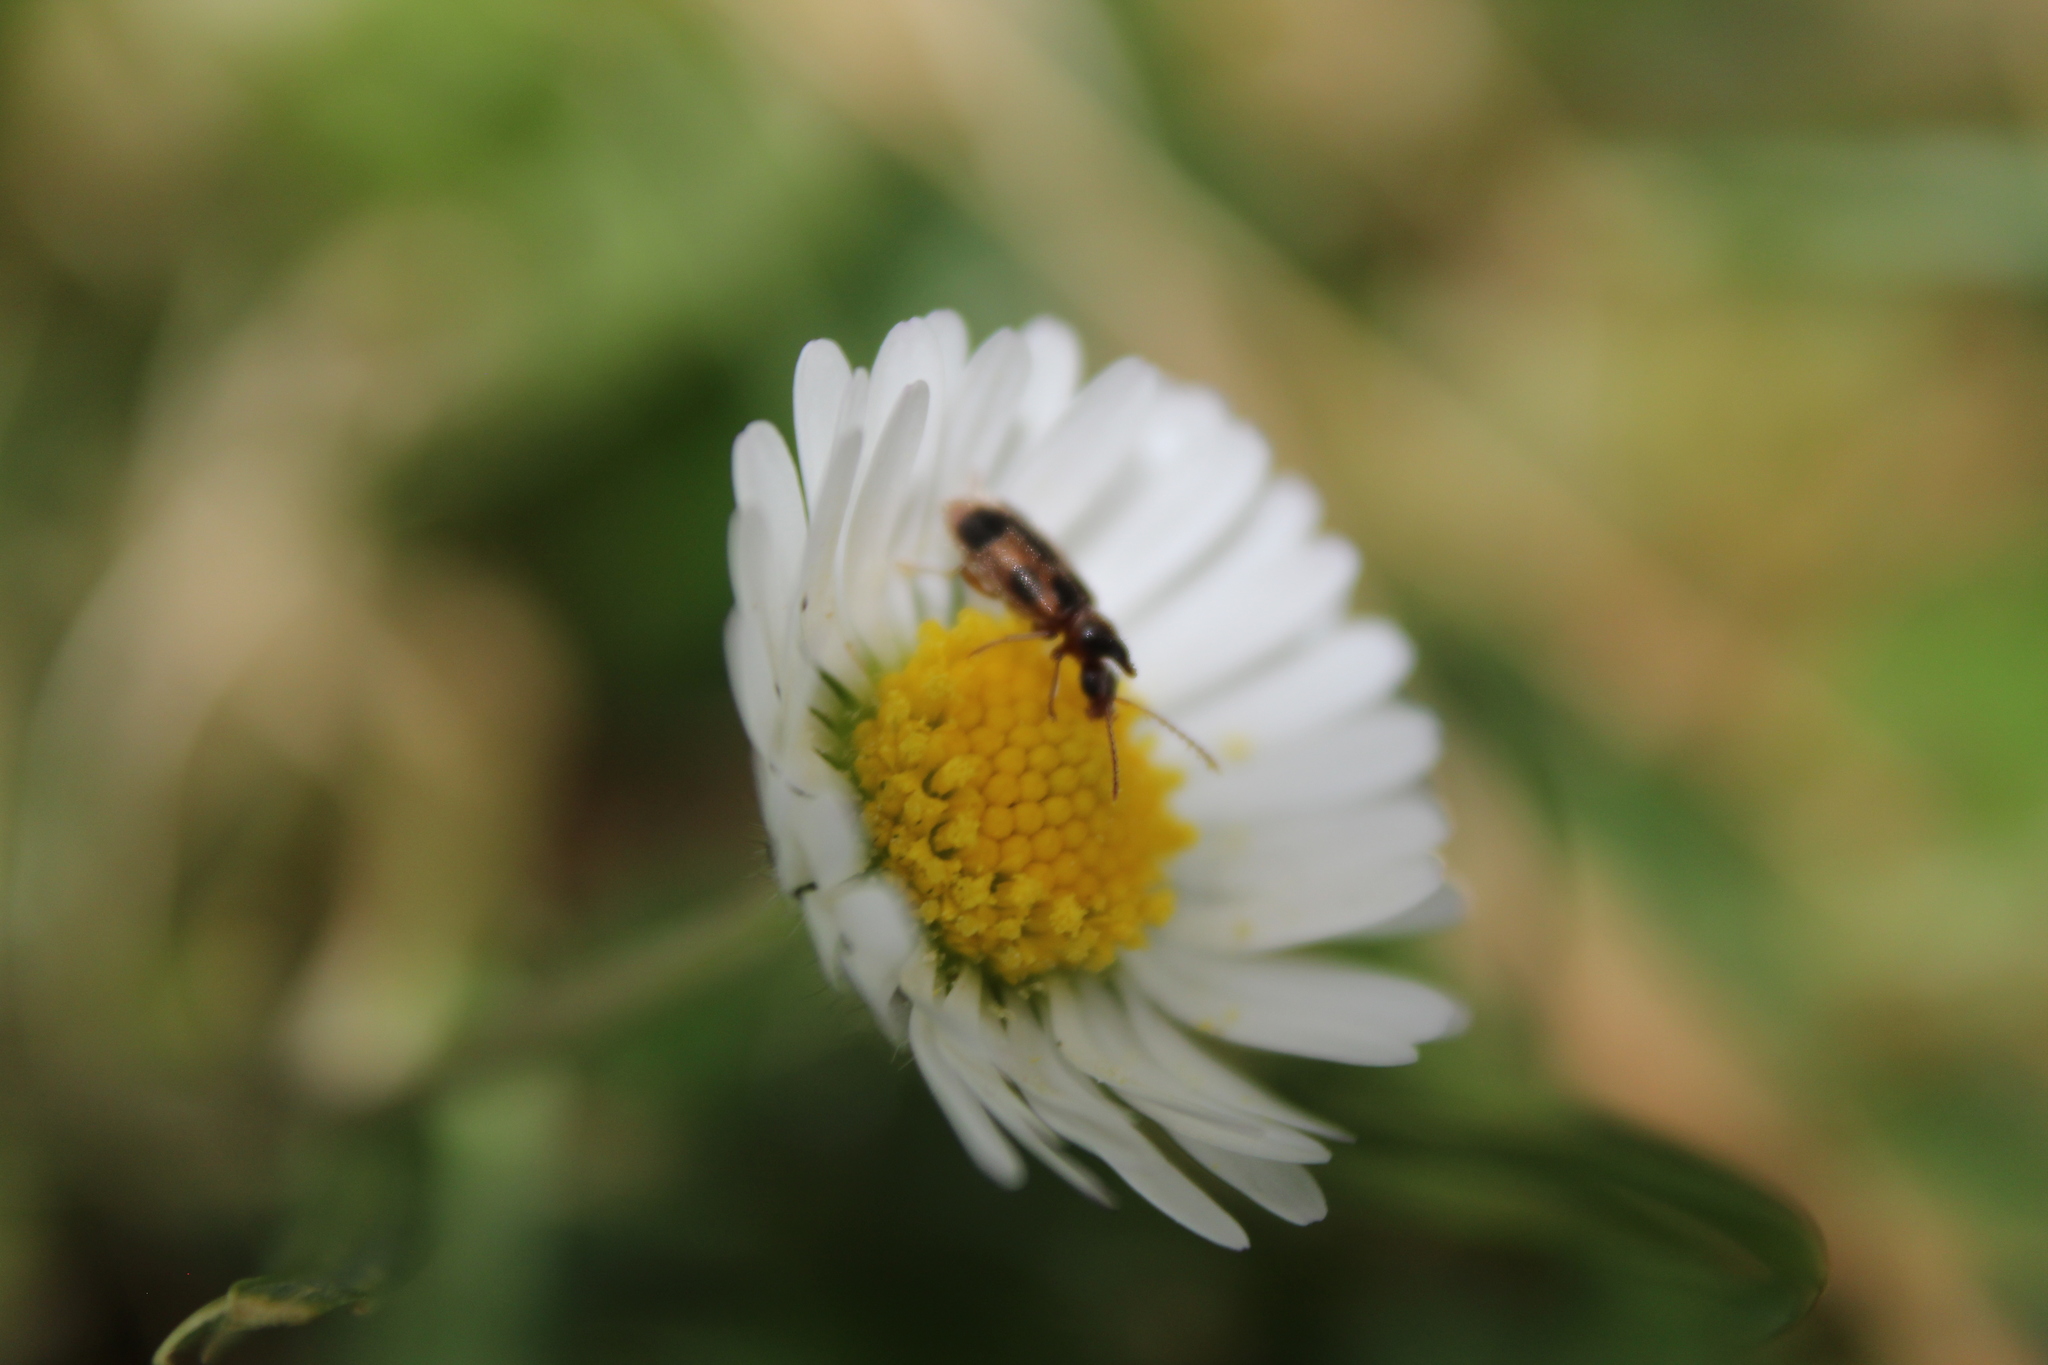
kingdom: Animalia
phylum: Arthropoda
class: Insecta
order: Coleoptera
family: Anthicidae
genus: Notoxus
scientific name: Notoxus monoceros
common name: Monoceros beetle
